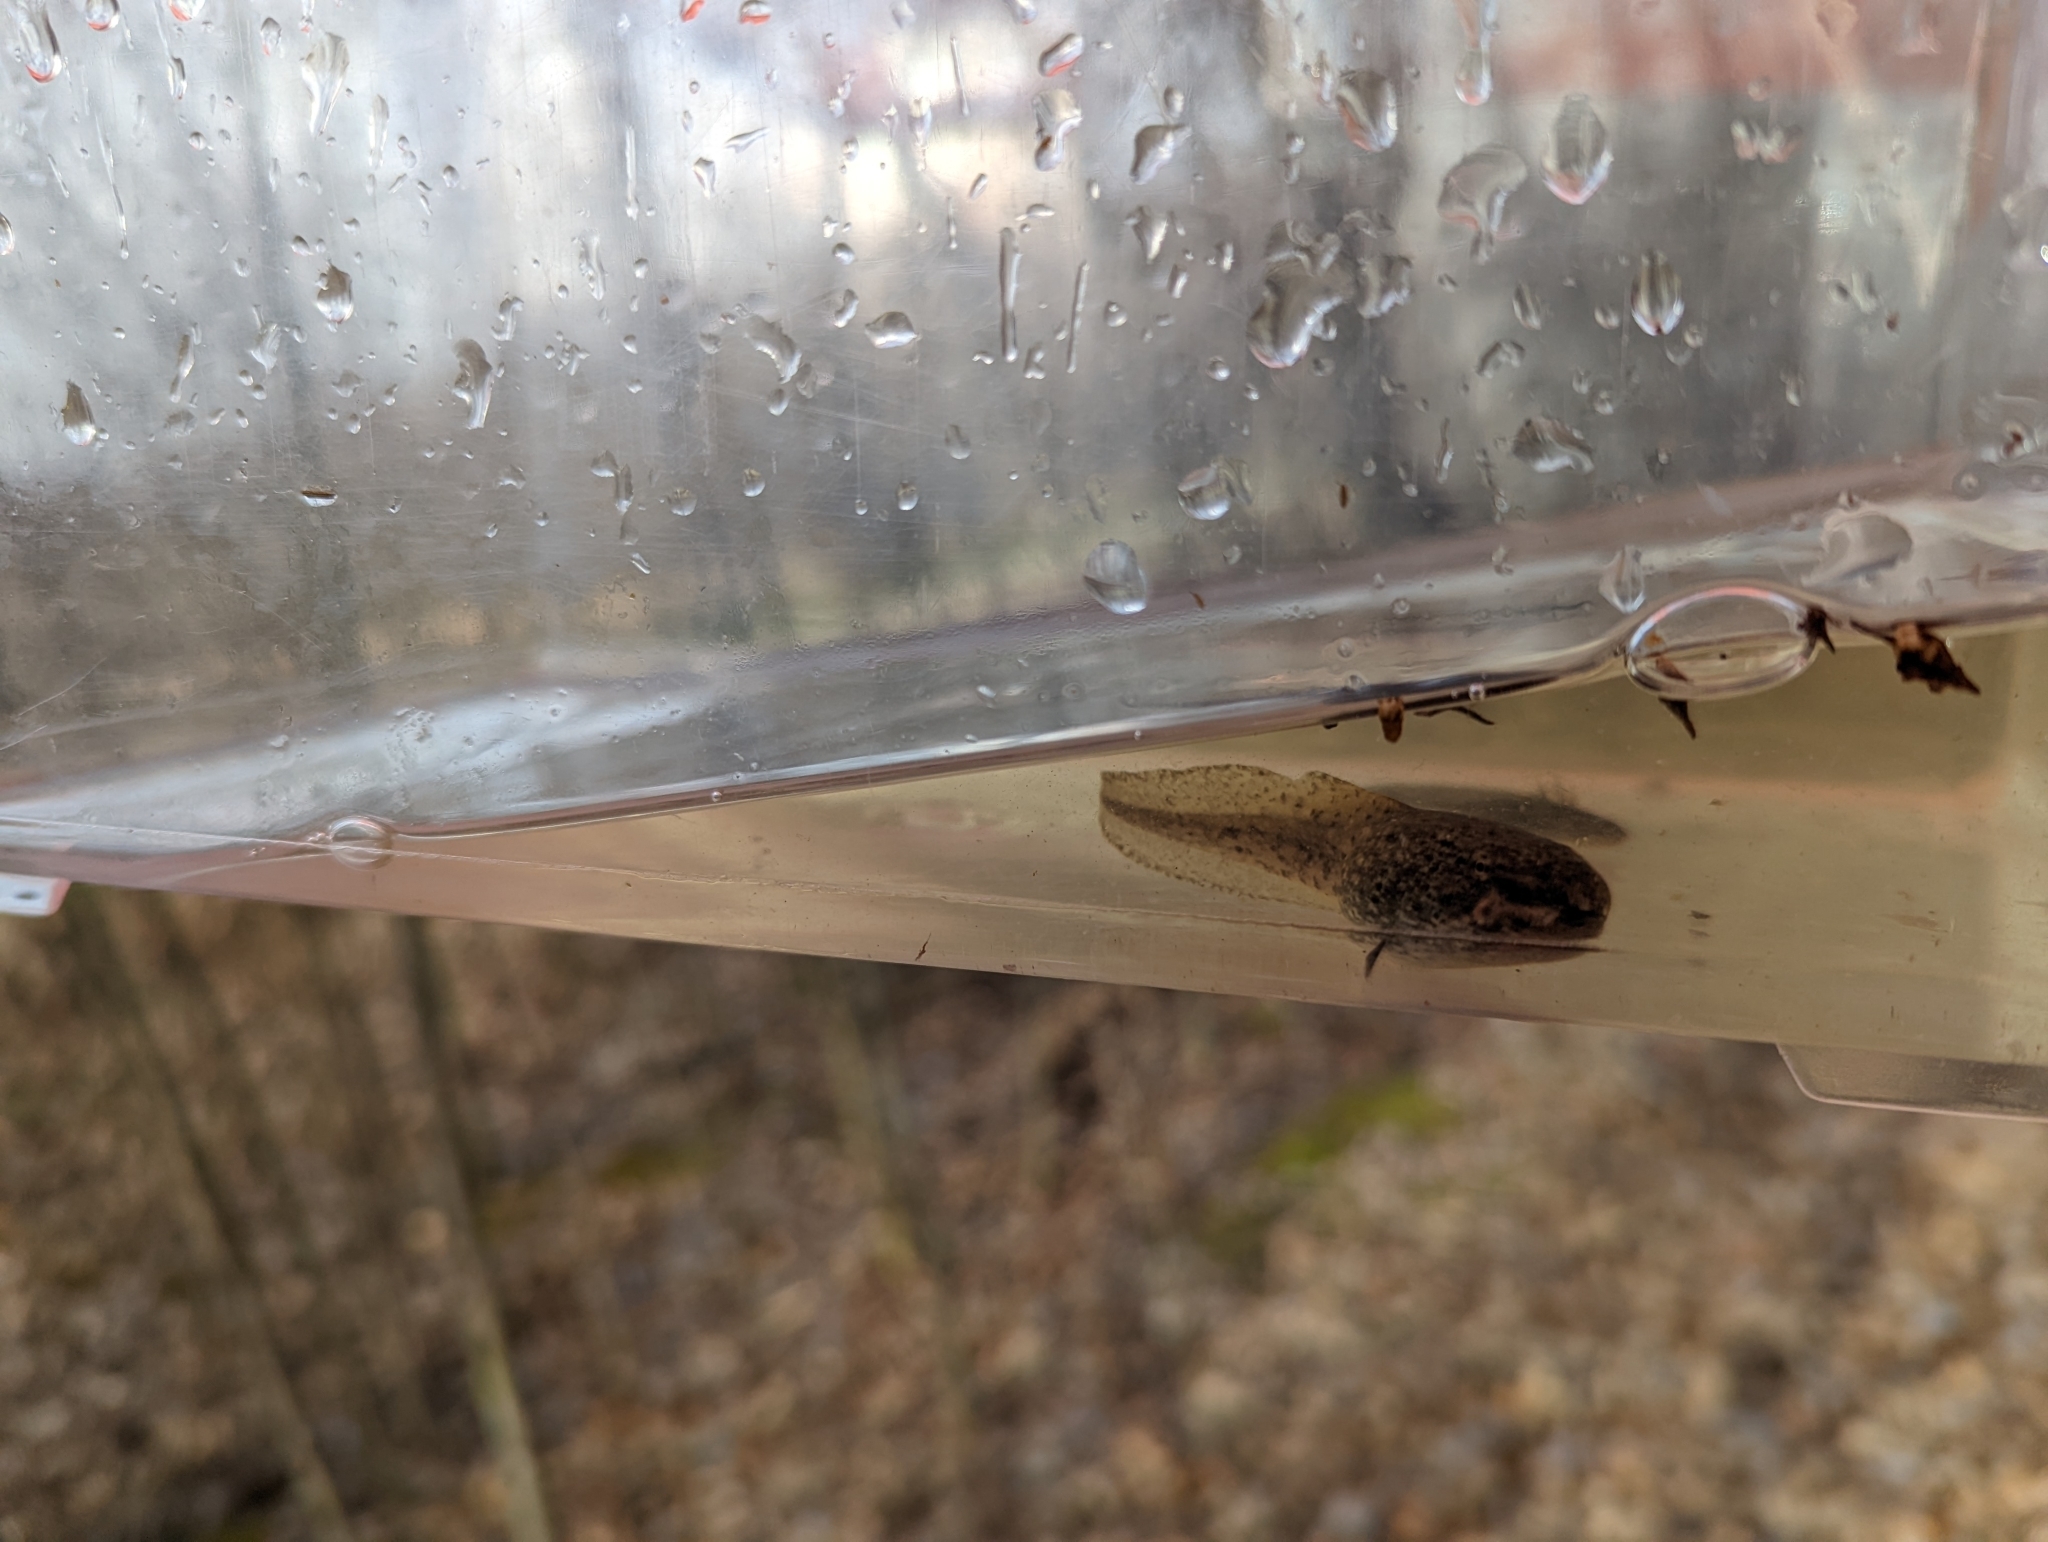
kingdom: Animalia
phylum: Chordata
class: Amphibia
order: Anura
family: Ranidae
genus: Lithobates
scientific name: Lithobates catesbeianus
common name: American bullfrog
